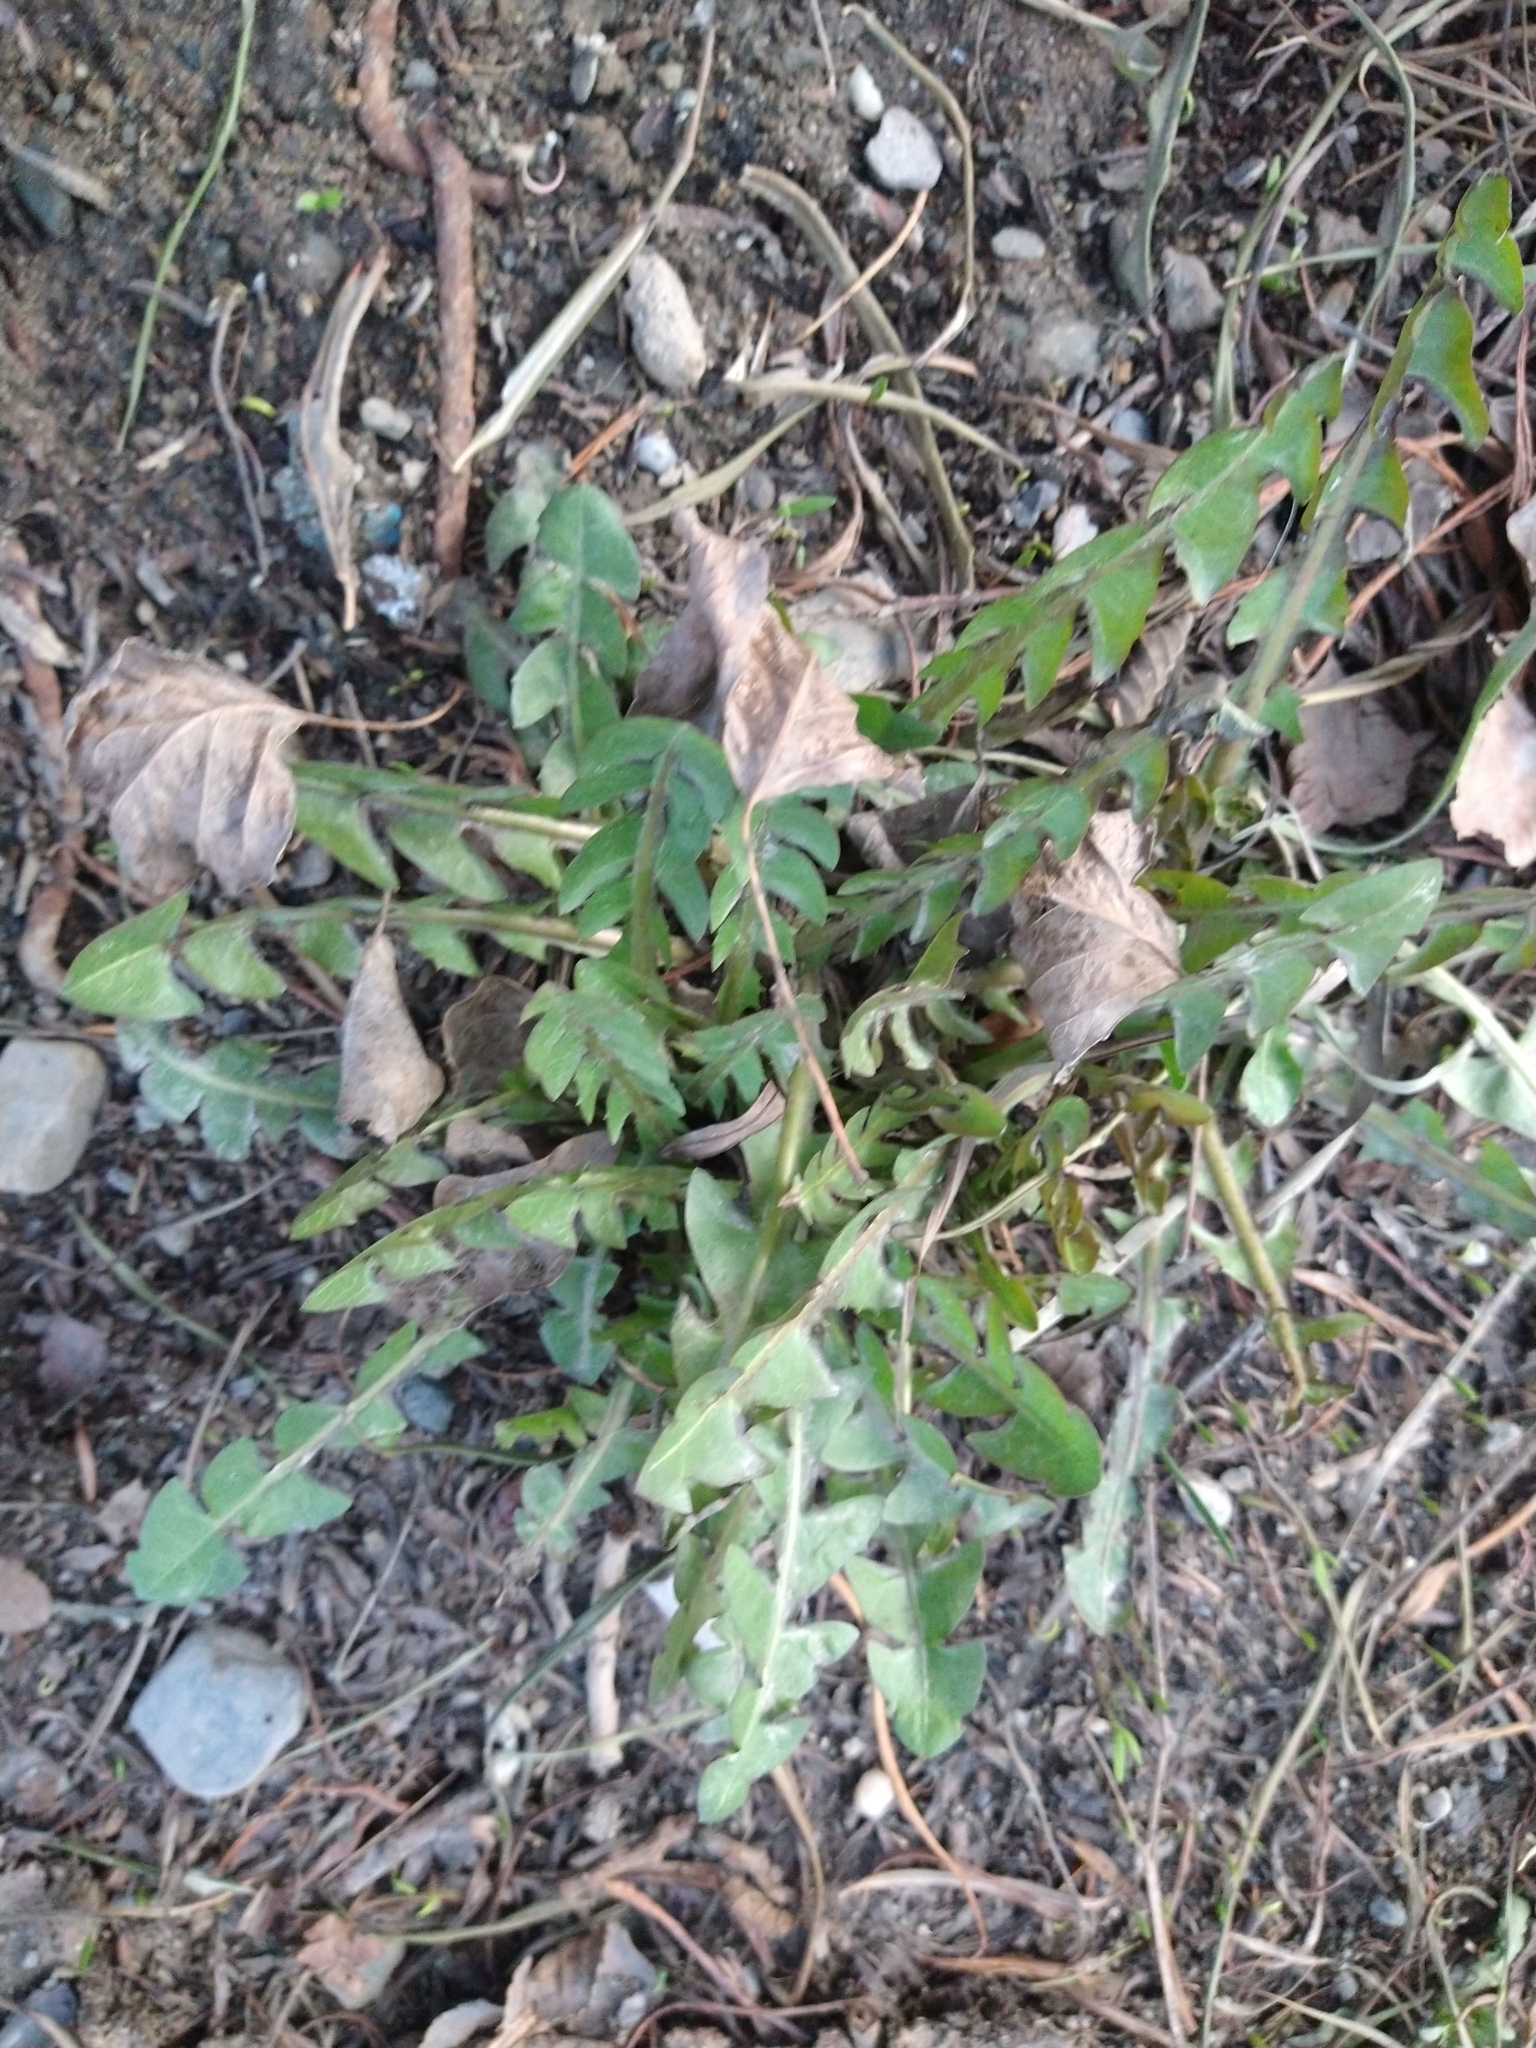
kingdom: Plantae
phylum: Tracheophyta
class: Magnoliopsida
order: Asterales
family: Asteraceae
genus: Taraxacum
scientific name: Taraxacum officinale
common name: Common dandelion
